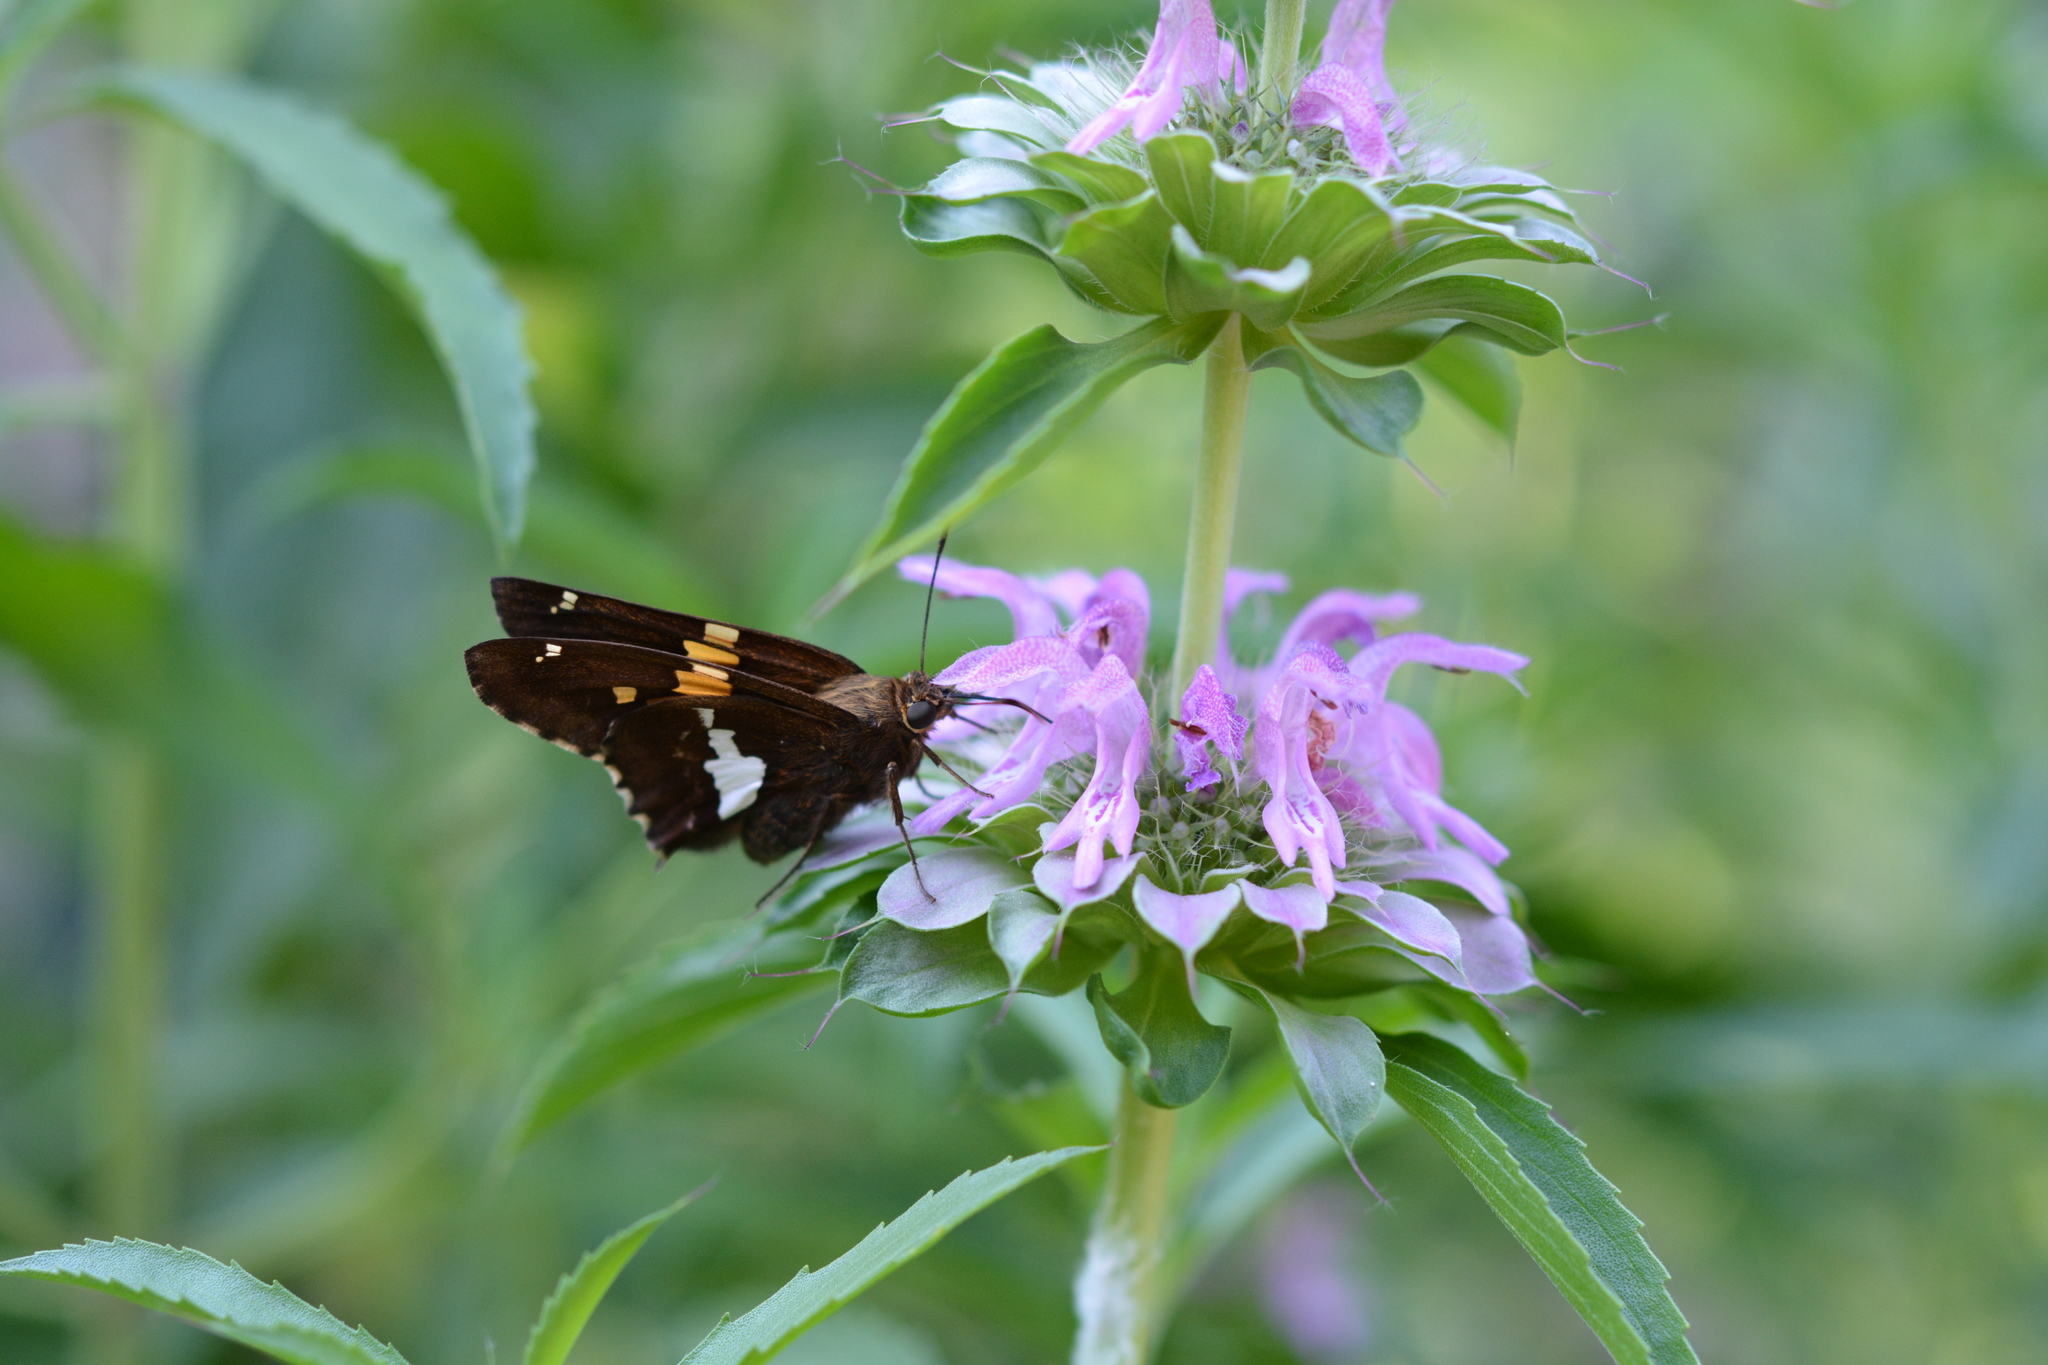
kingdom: Animalia
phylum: Arthropoda
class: Insecta
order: Lepidoptera
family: Hesperiidae
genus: Epargyreus
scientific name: Epargyreus clarus
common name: Silver-spotted skipper
